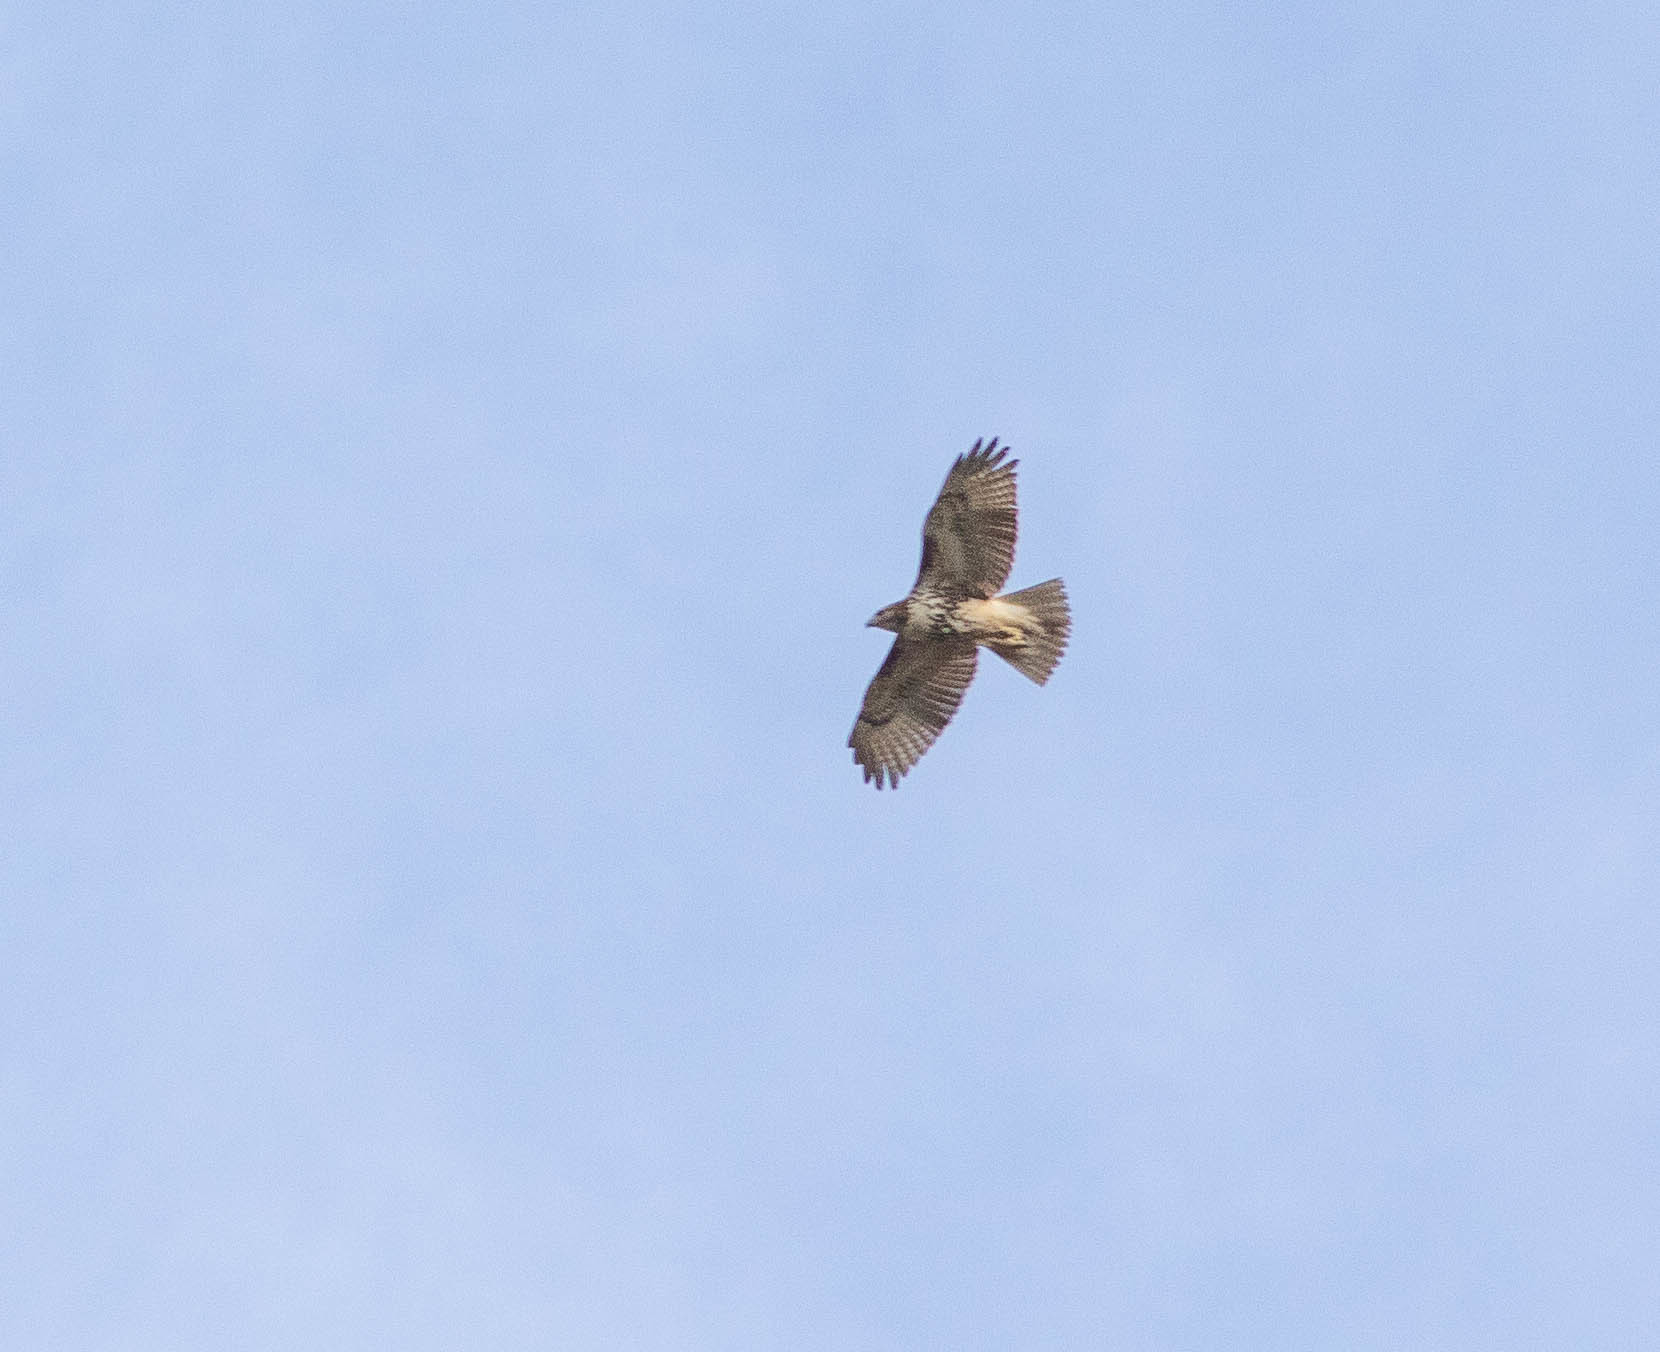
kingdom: Animalia
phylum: Chordata
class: Aves
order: Accipitriformes
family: Accipitridae
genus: Buteo
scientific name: Buteo jamaicensis
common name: Red-tailed hawk
